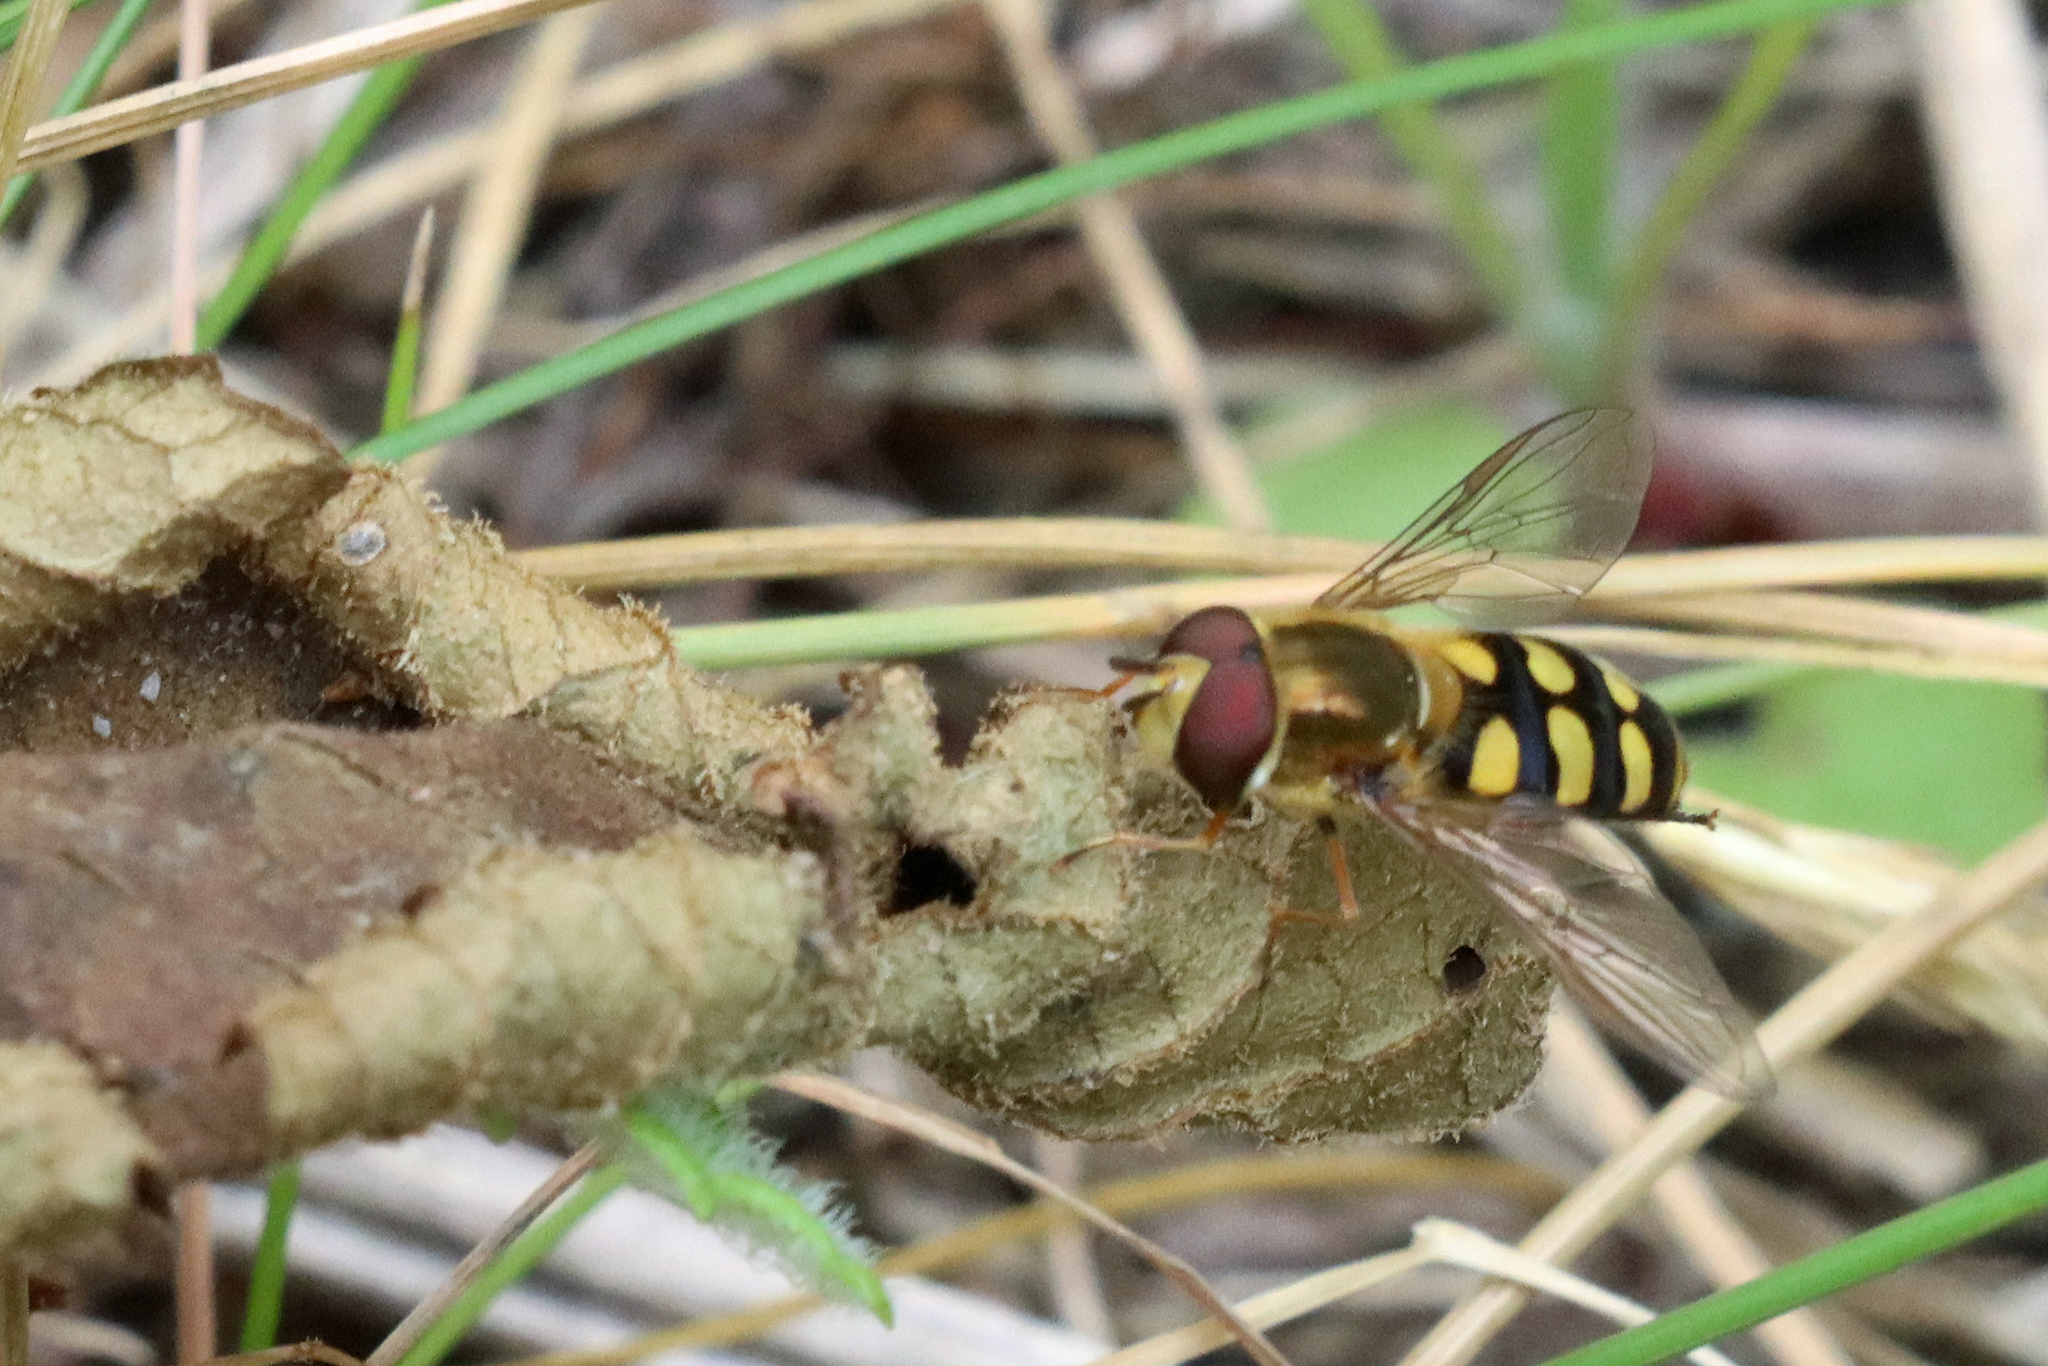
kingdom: Animalia
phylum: Arthropoda
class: Insecta
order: Diptera
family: Syrphidae
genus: Eupeodes
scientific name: Eupeodes
